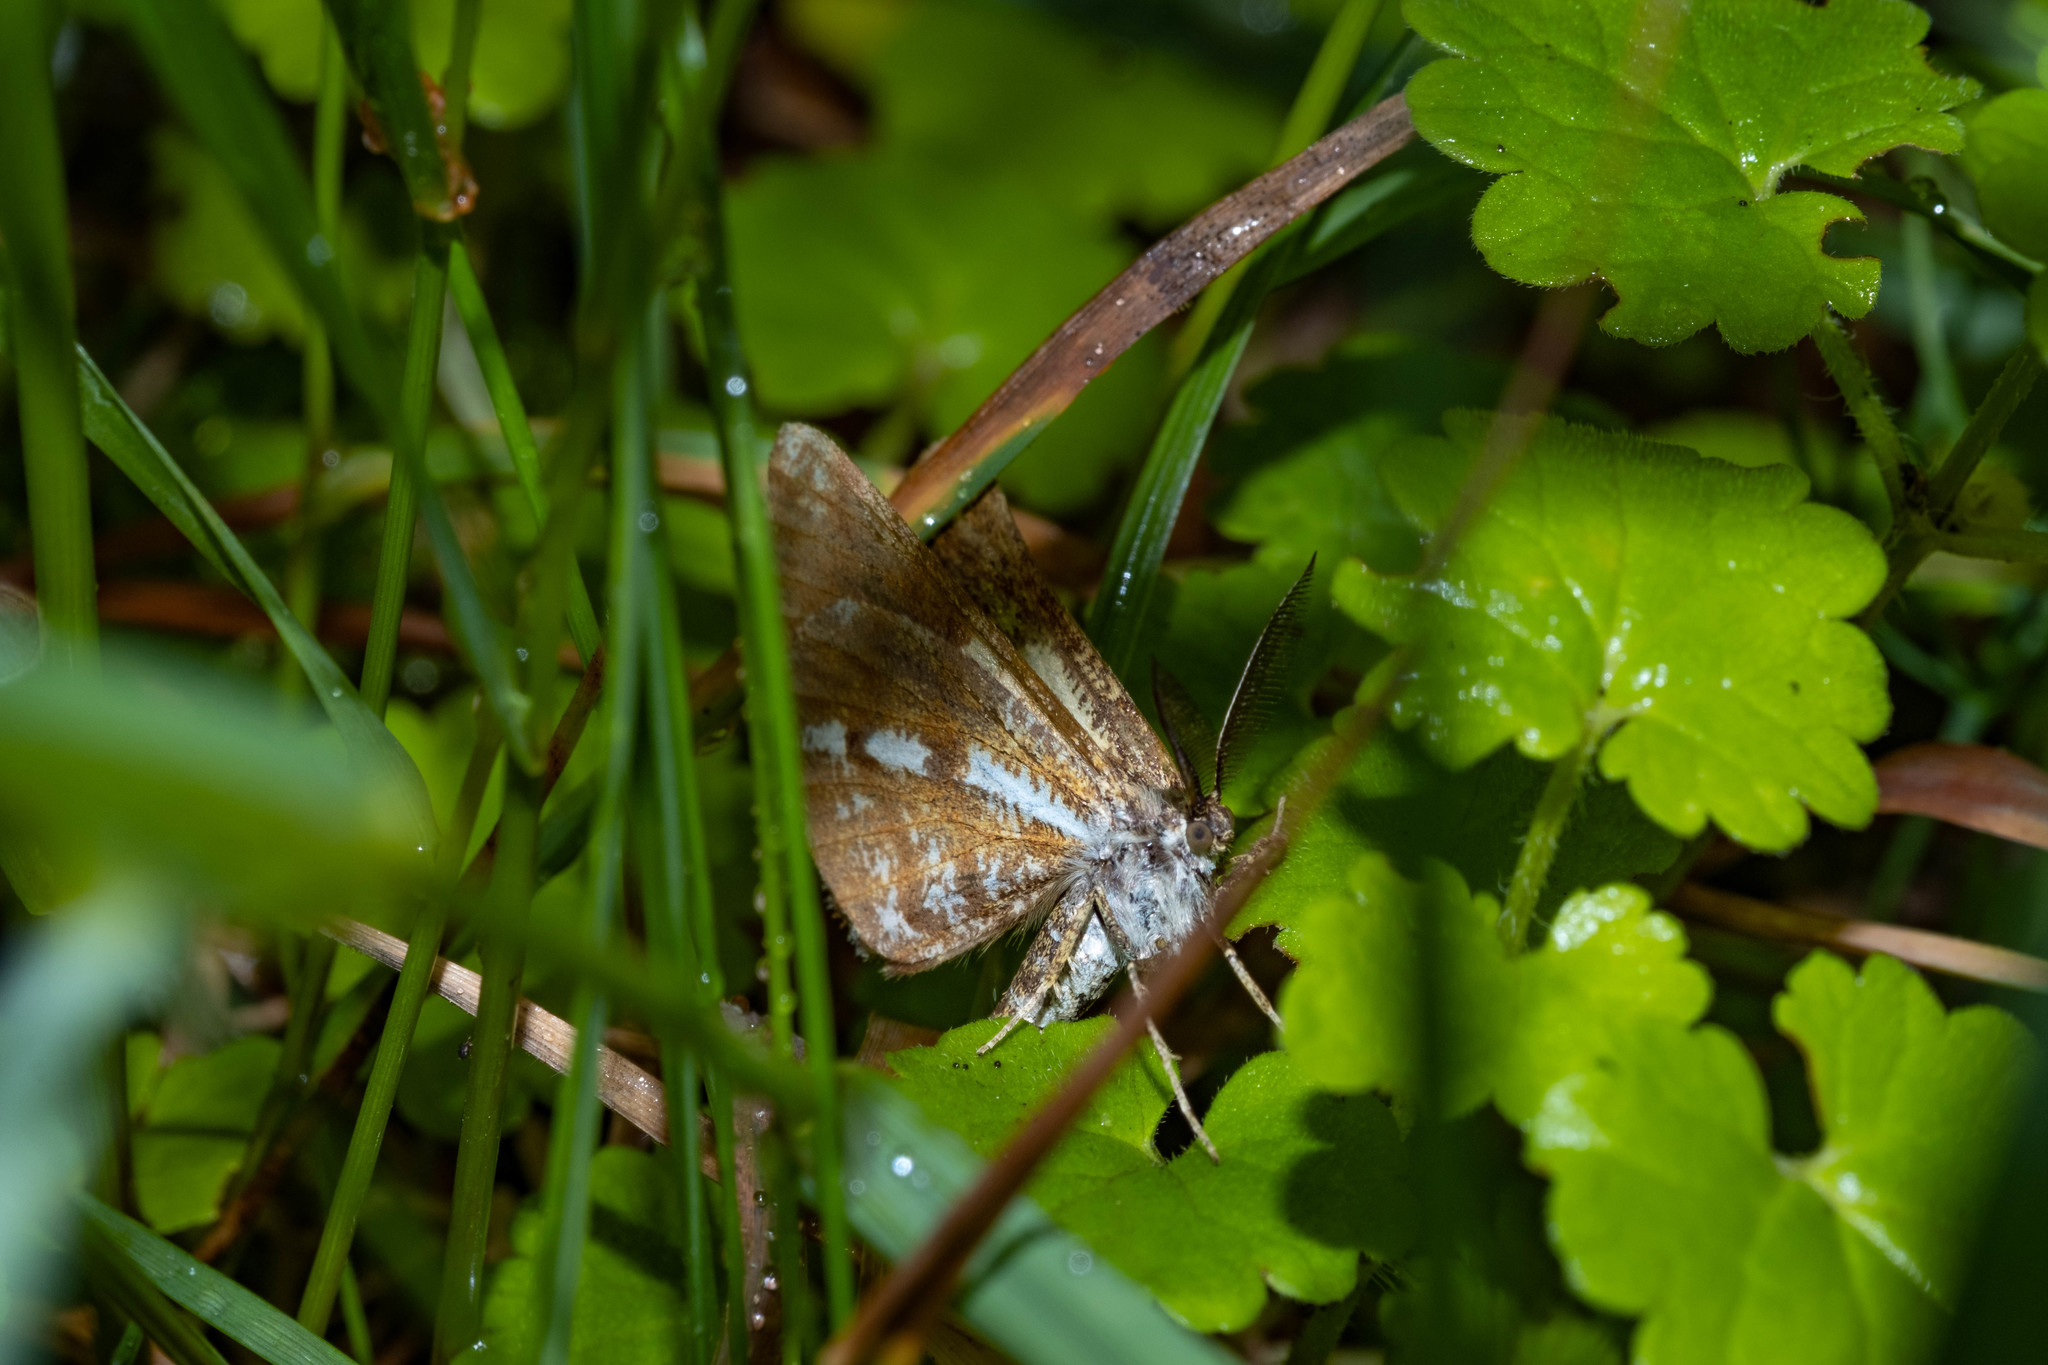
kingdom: Animalia
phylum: Arthropoda
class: Insecta
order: Lepidoptera
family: Geometridae
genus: Bupalus
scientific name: Bupalus piniaria
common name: Bordered white
